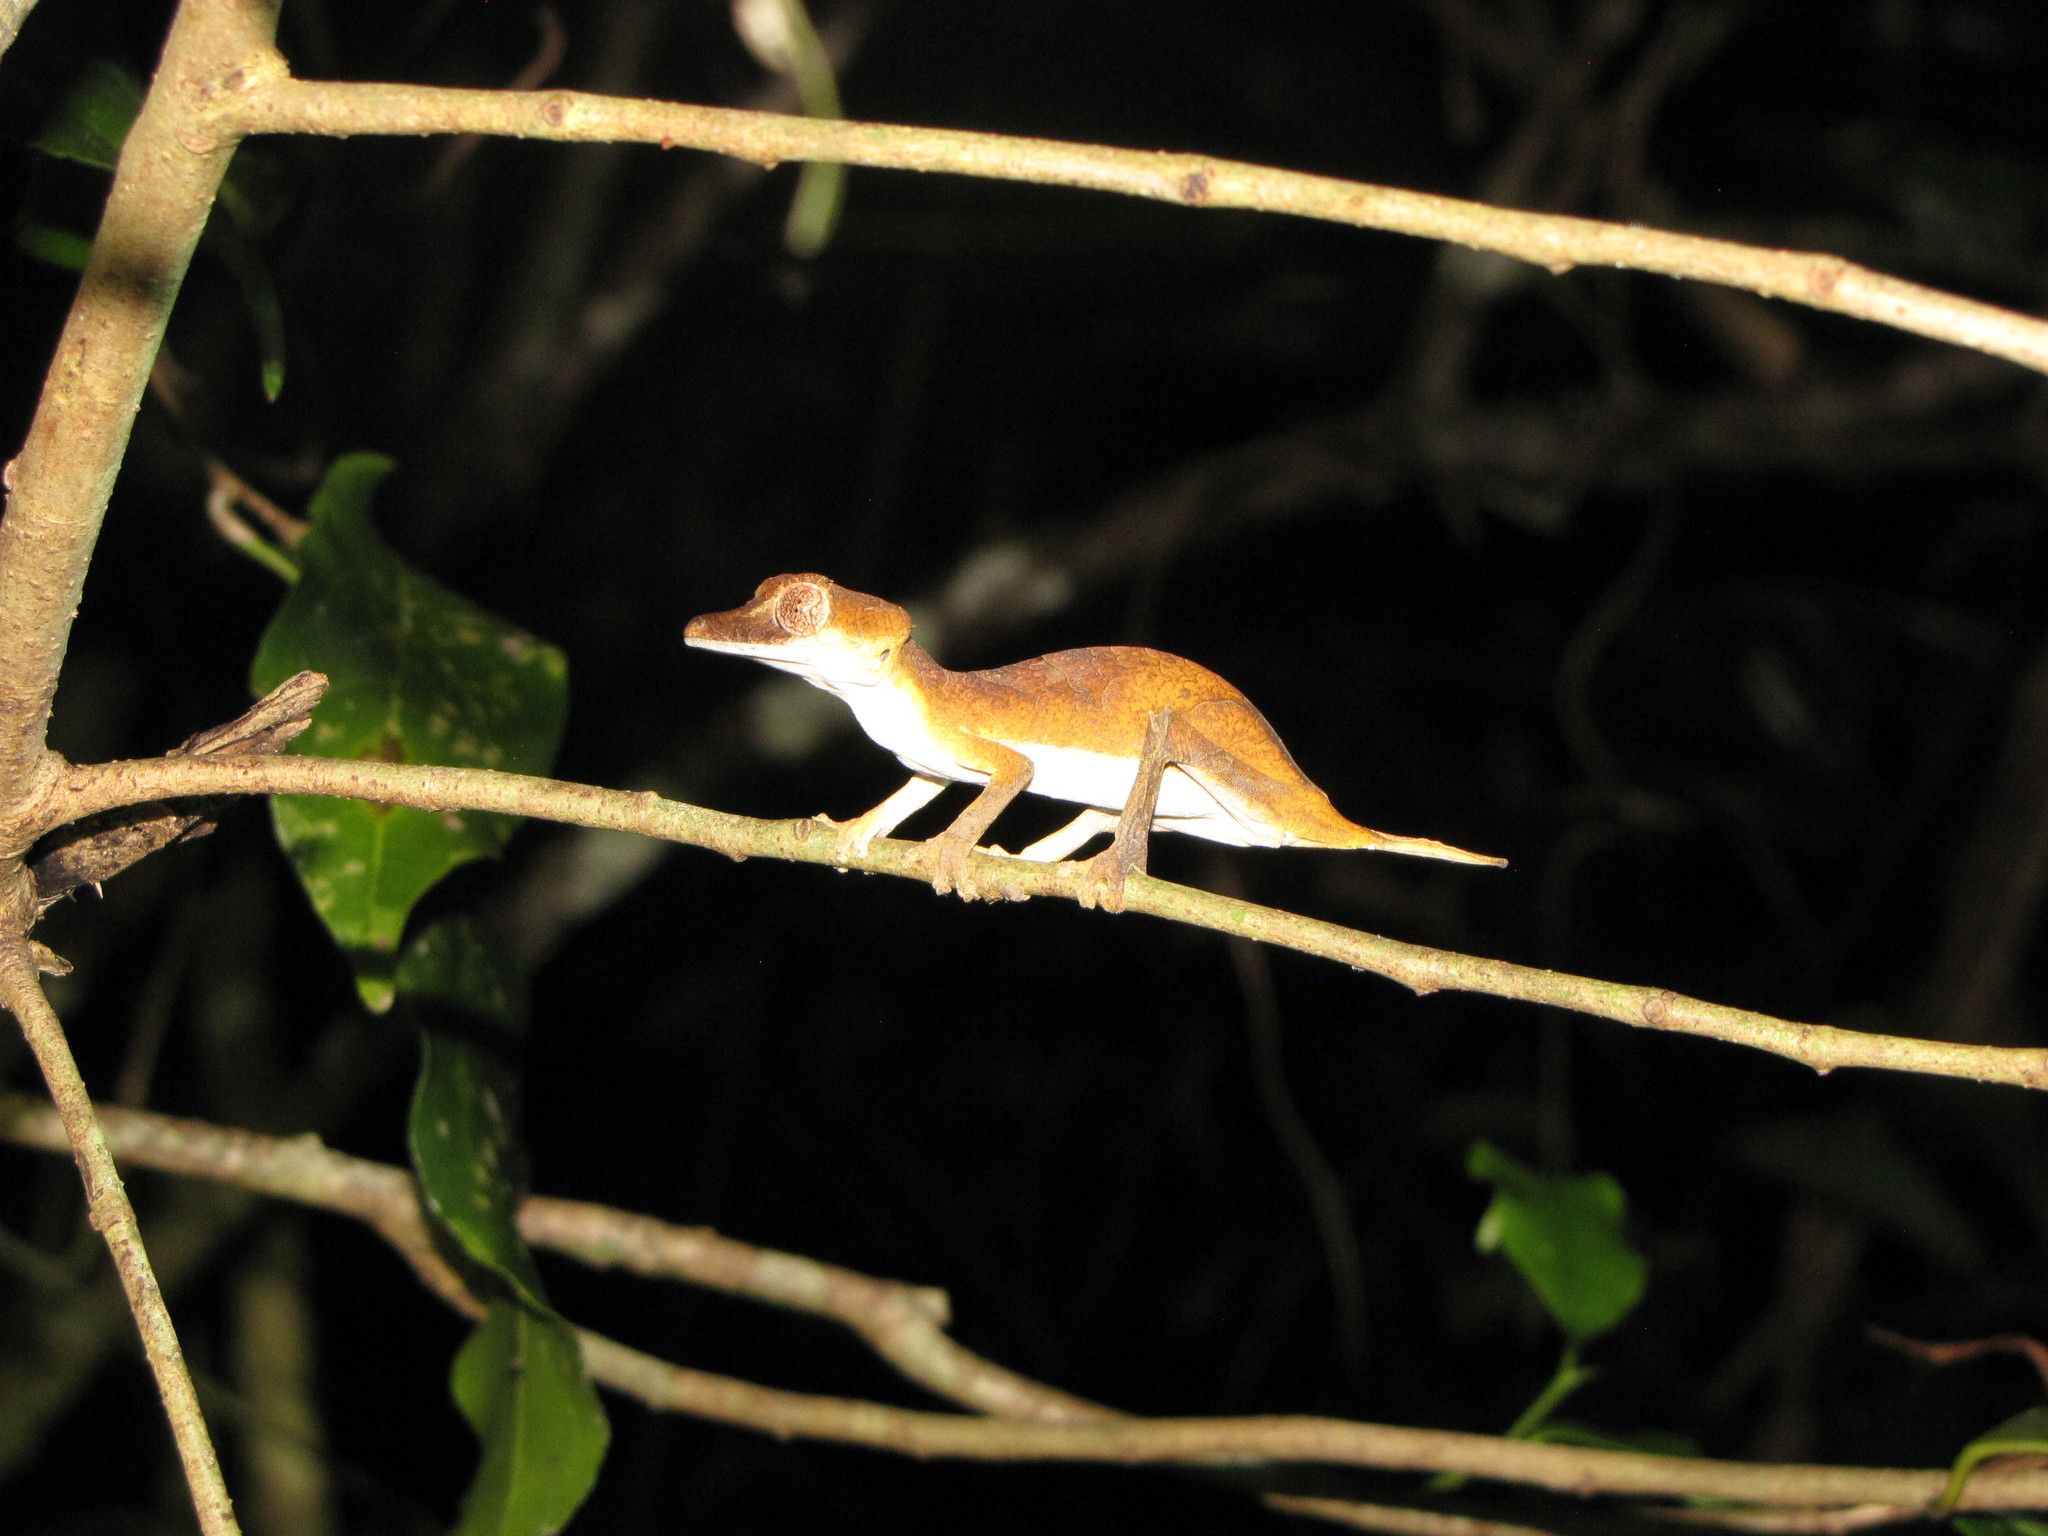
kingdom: Animalia
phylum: Chordata
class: Squamata
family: Gekkonidae
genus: Uroplatus
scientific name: Uroplatus ebenaui
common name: Nosy be fiat-tail gecko
